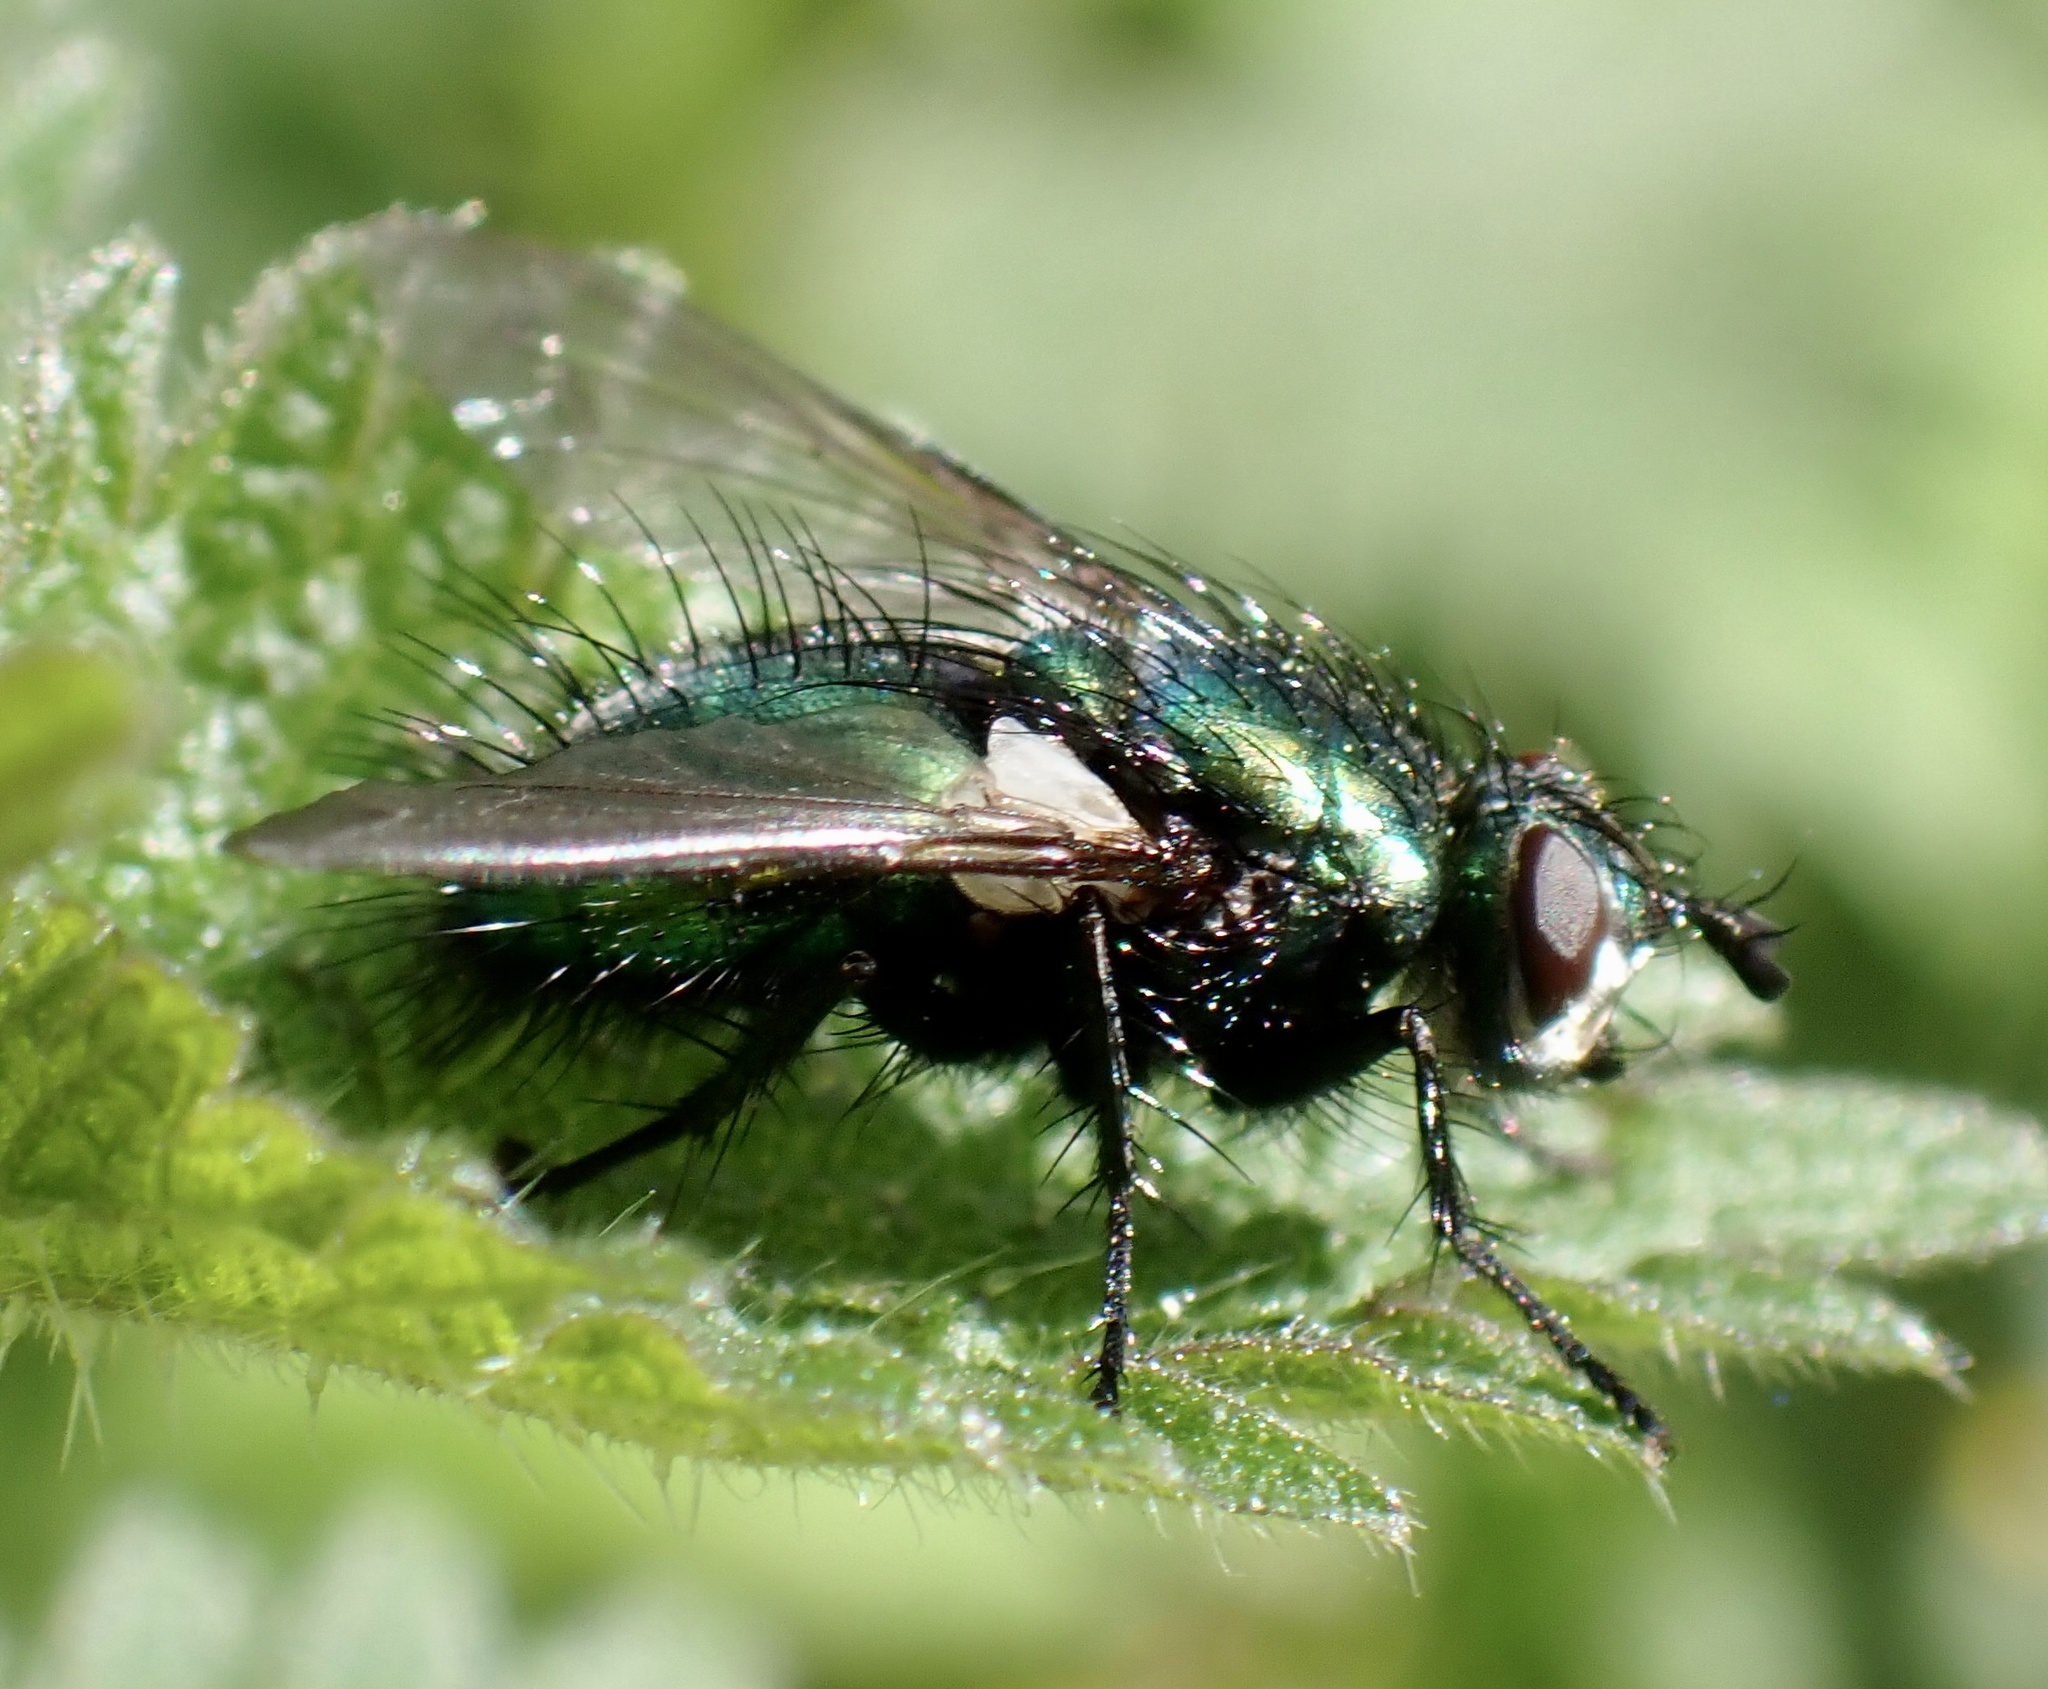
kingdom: Animalia
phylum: Arthropoda
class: Insecta
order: Diptera
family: Tachinidae
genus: Gymnocheta
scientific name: Gymnocheta viridis
